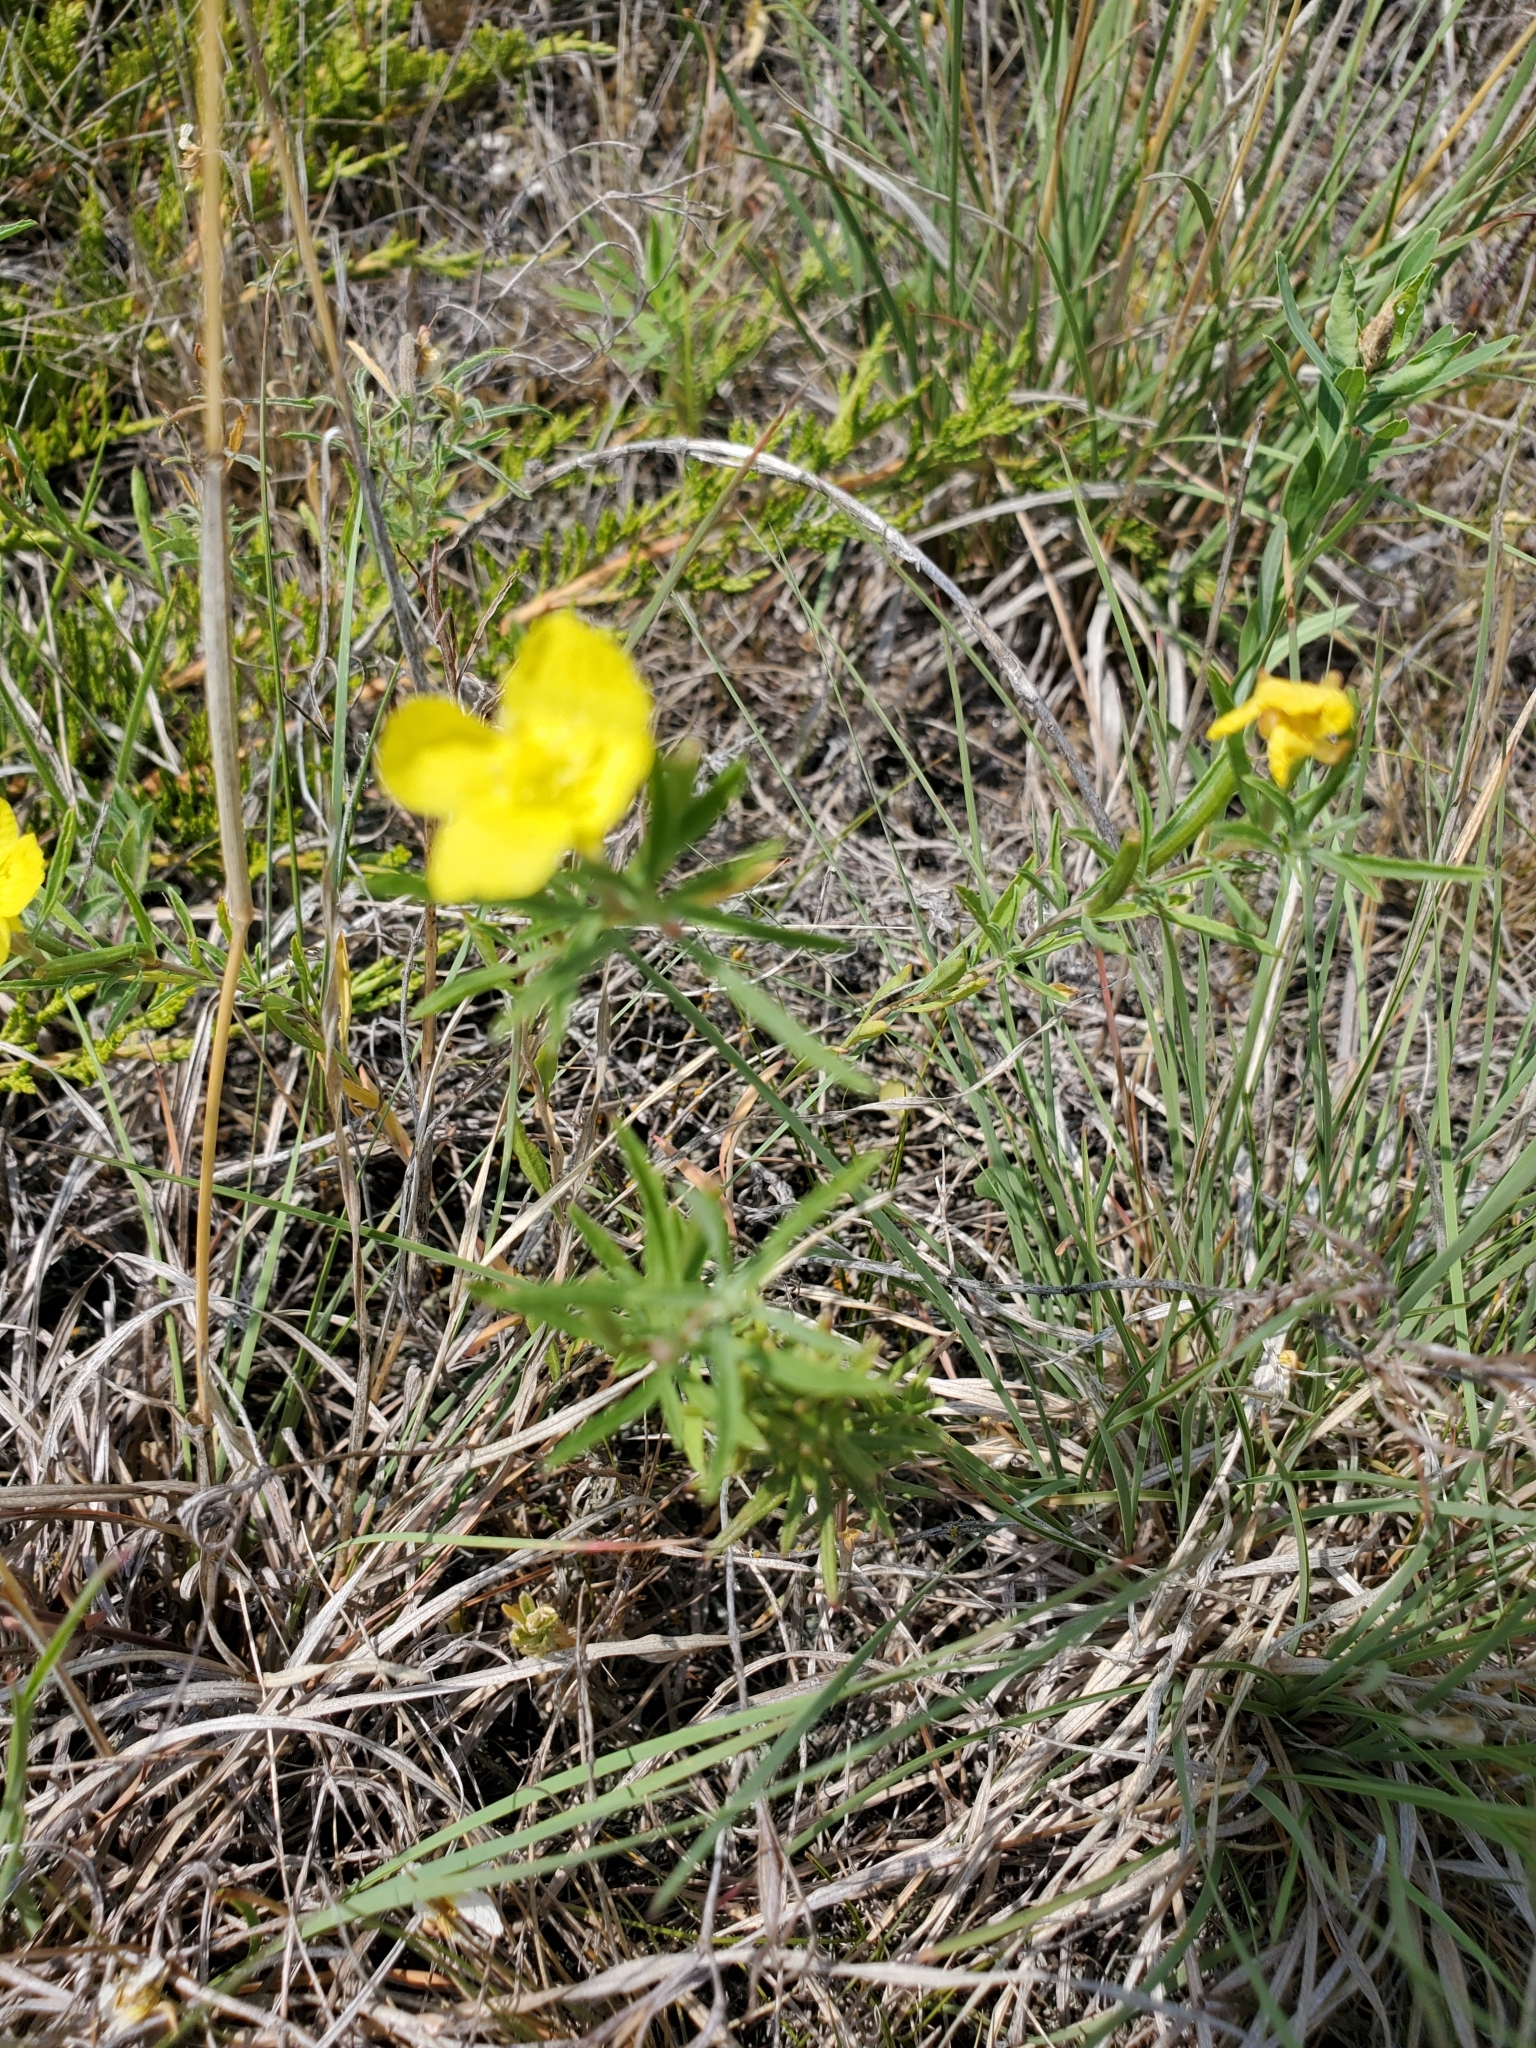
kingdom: Plantae
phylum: Tracheophyta
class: Magnoliopsida
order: Myrtales
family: Onagraceae
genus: Oenothera
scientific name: Oenothera serrulata
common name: Half-shrub calylophus
